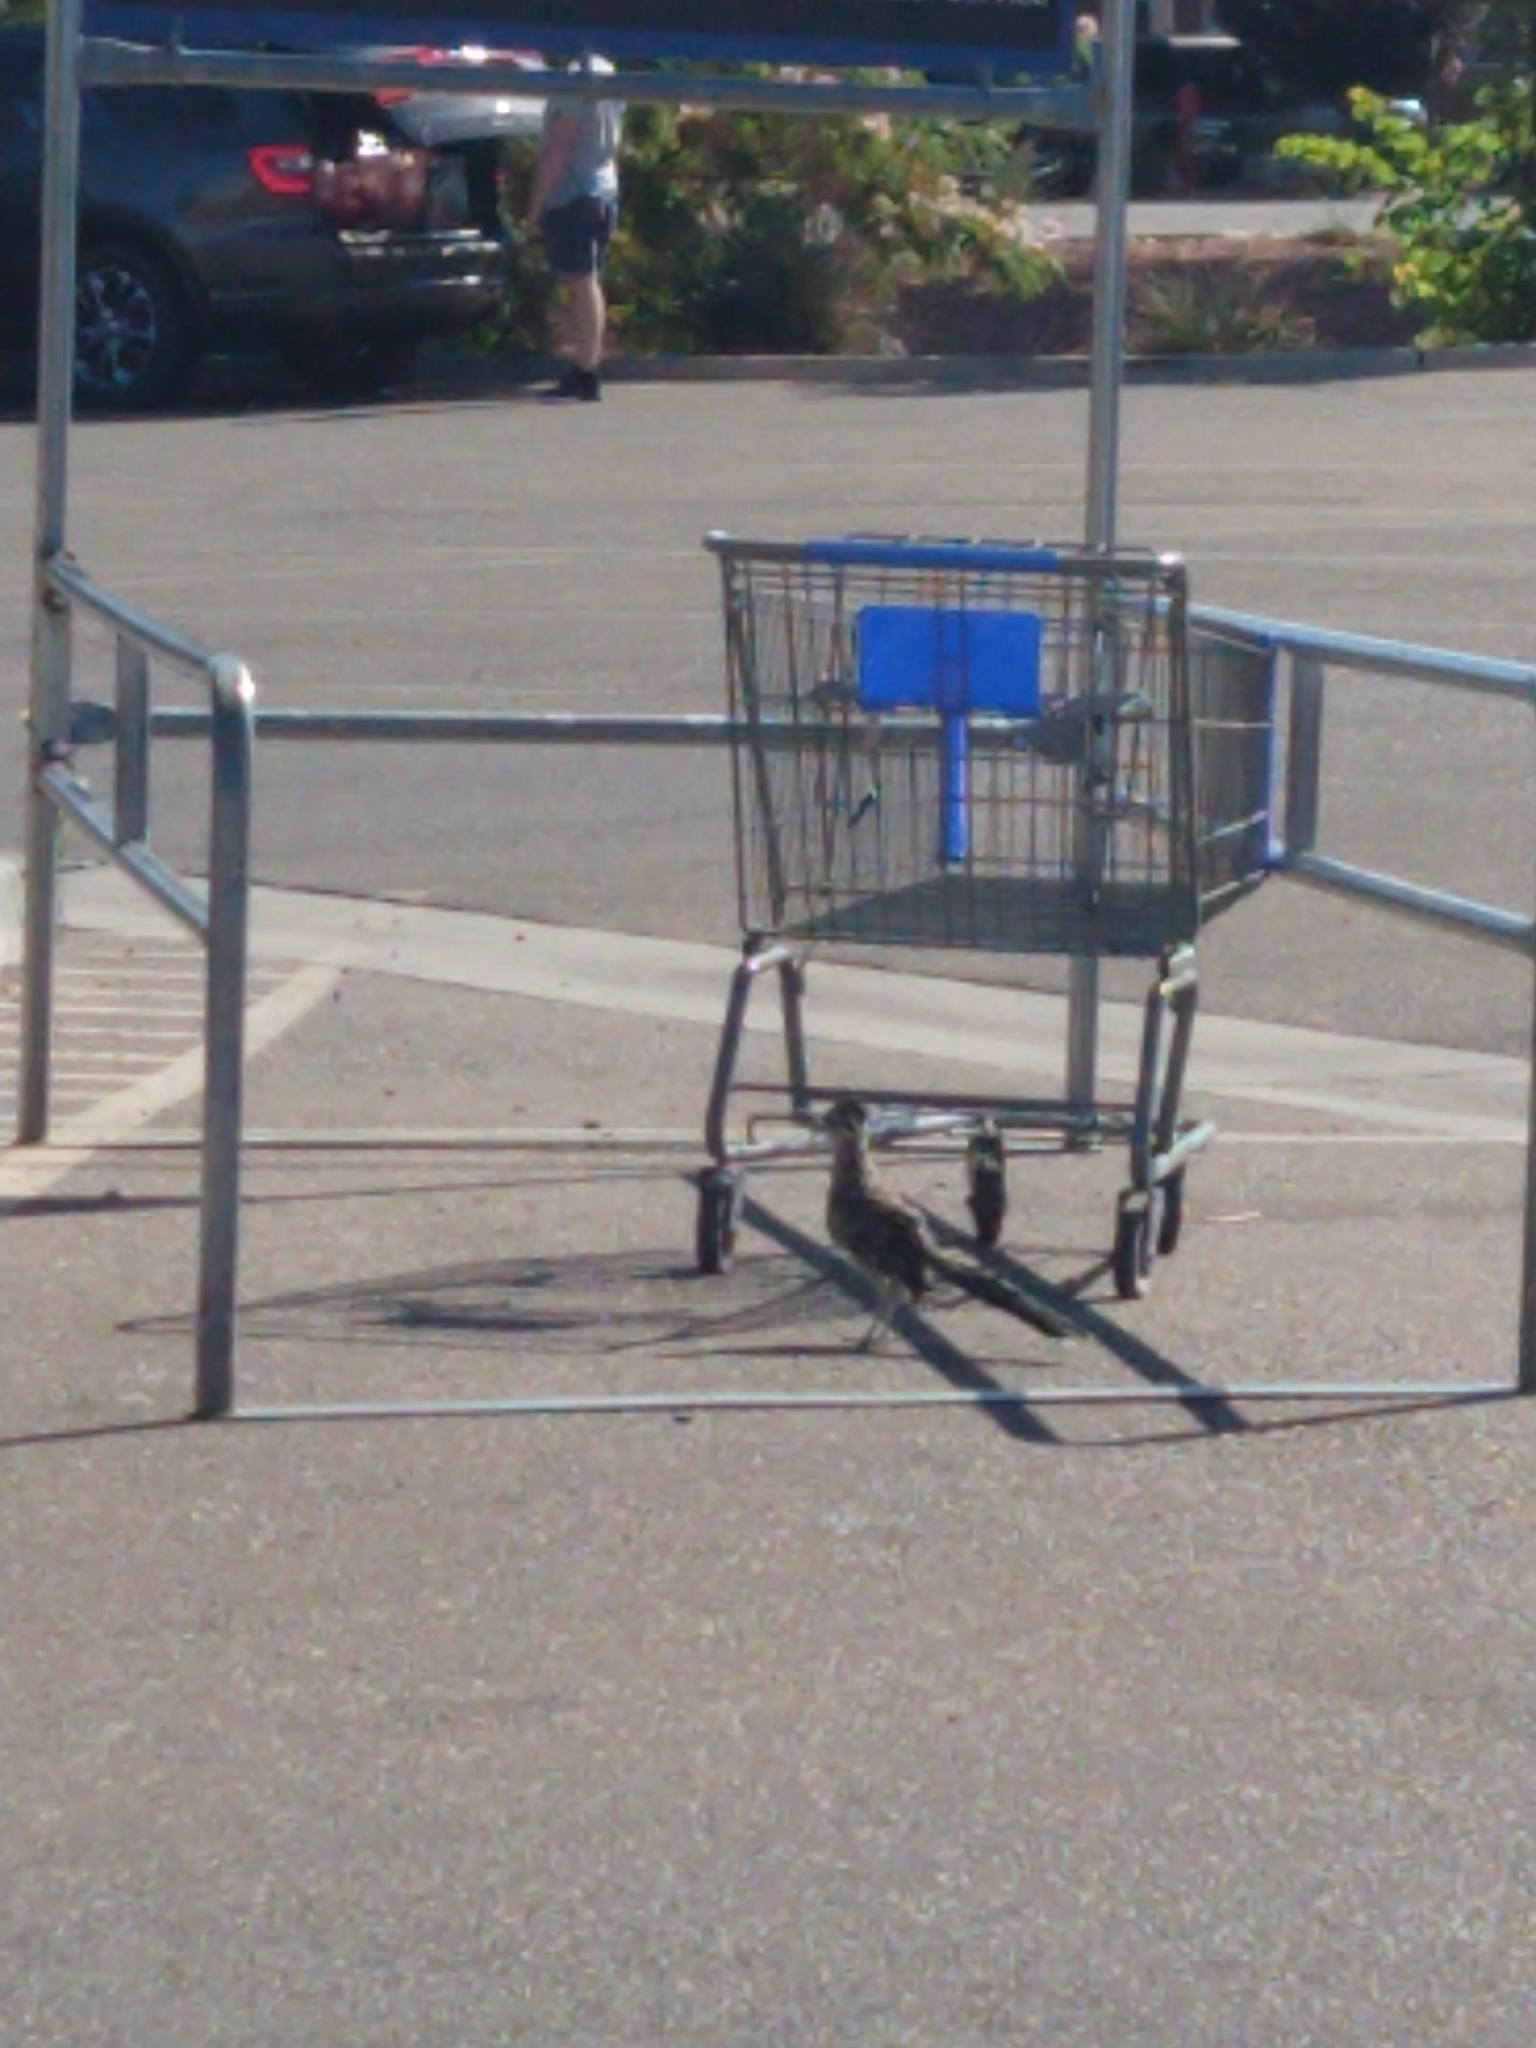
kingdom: Animalia
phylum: Chordata
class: Aves
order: Cuculiformes
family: Cuculidae
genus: Geococcyx
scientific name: Geococcyx californianus
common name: Greater roadrunner
